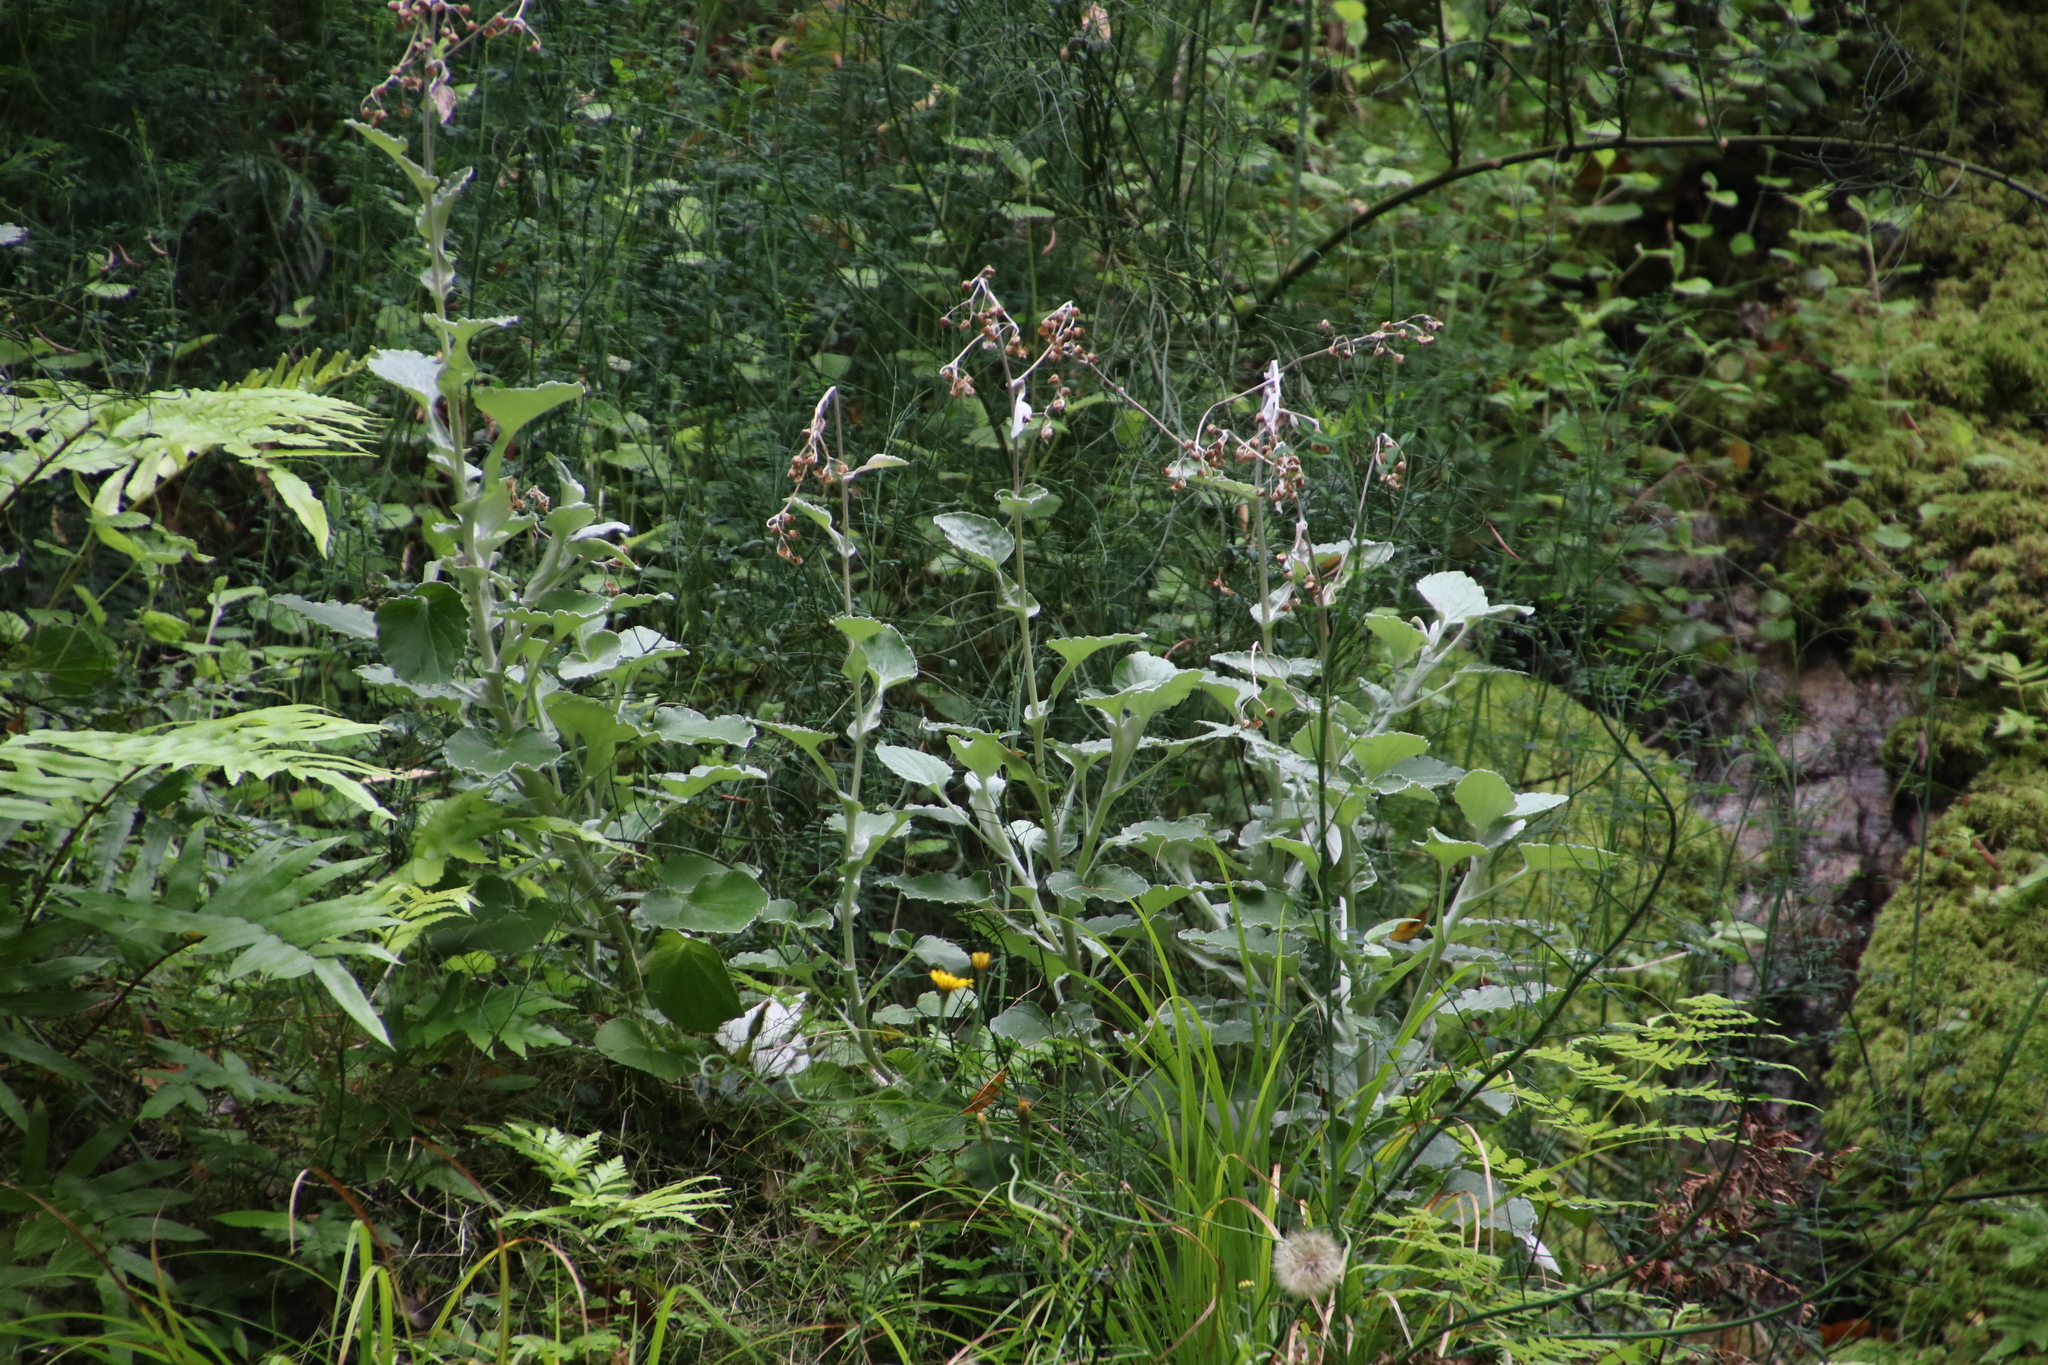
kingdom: Plantae
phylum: Tracheophyta
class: Magnoliopsida
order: Asterales
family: Asteraceae
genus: Senecio
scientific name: Senecio verbascifolius
